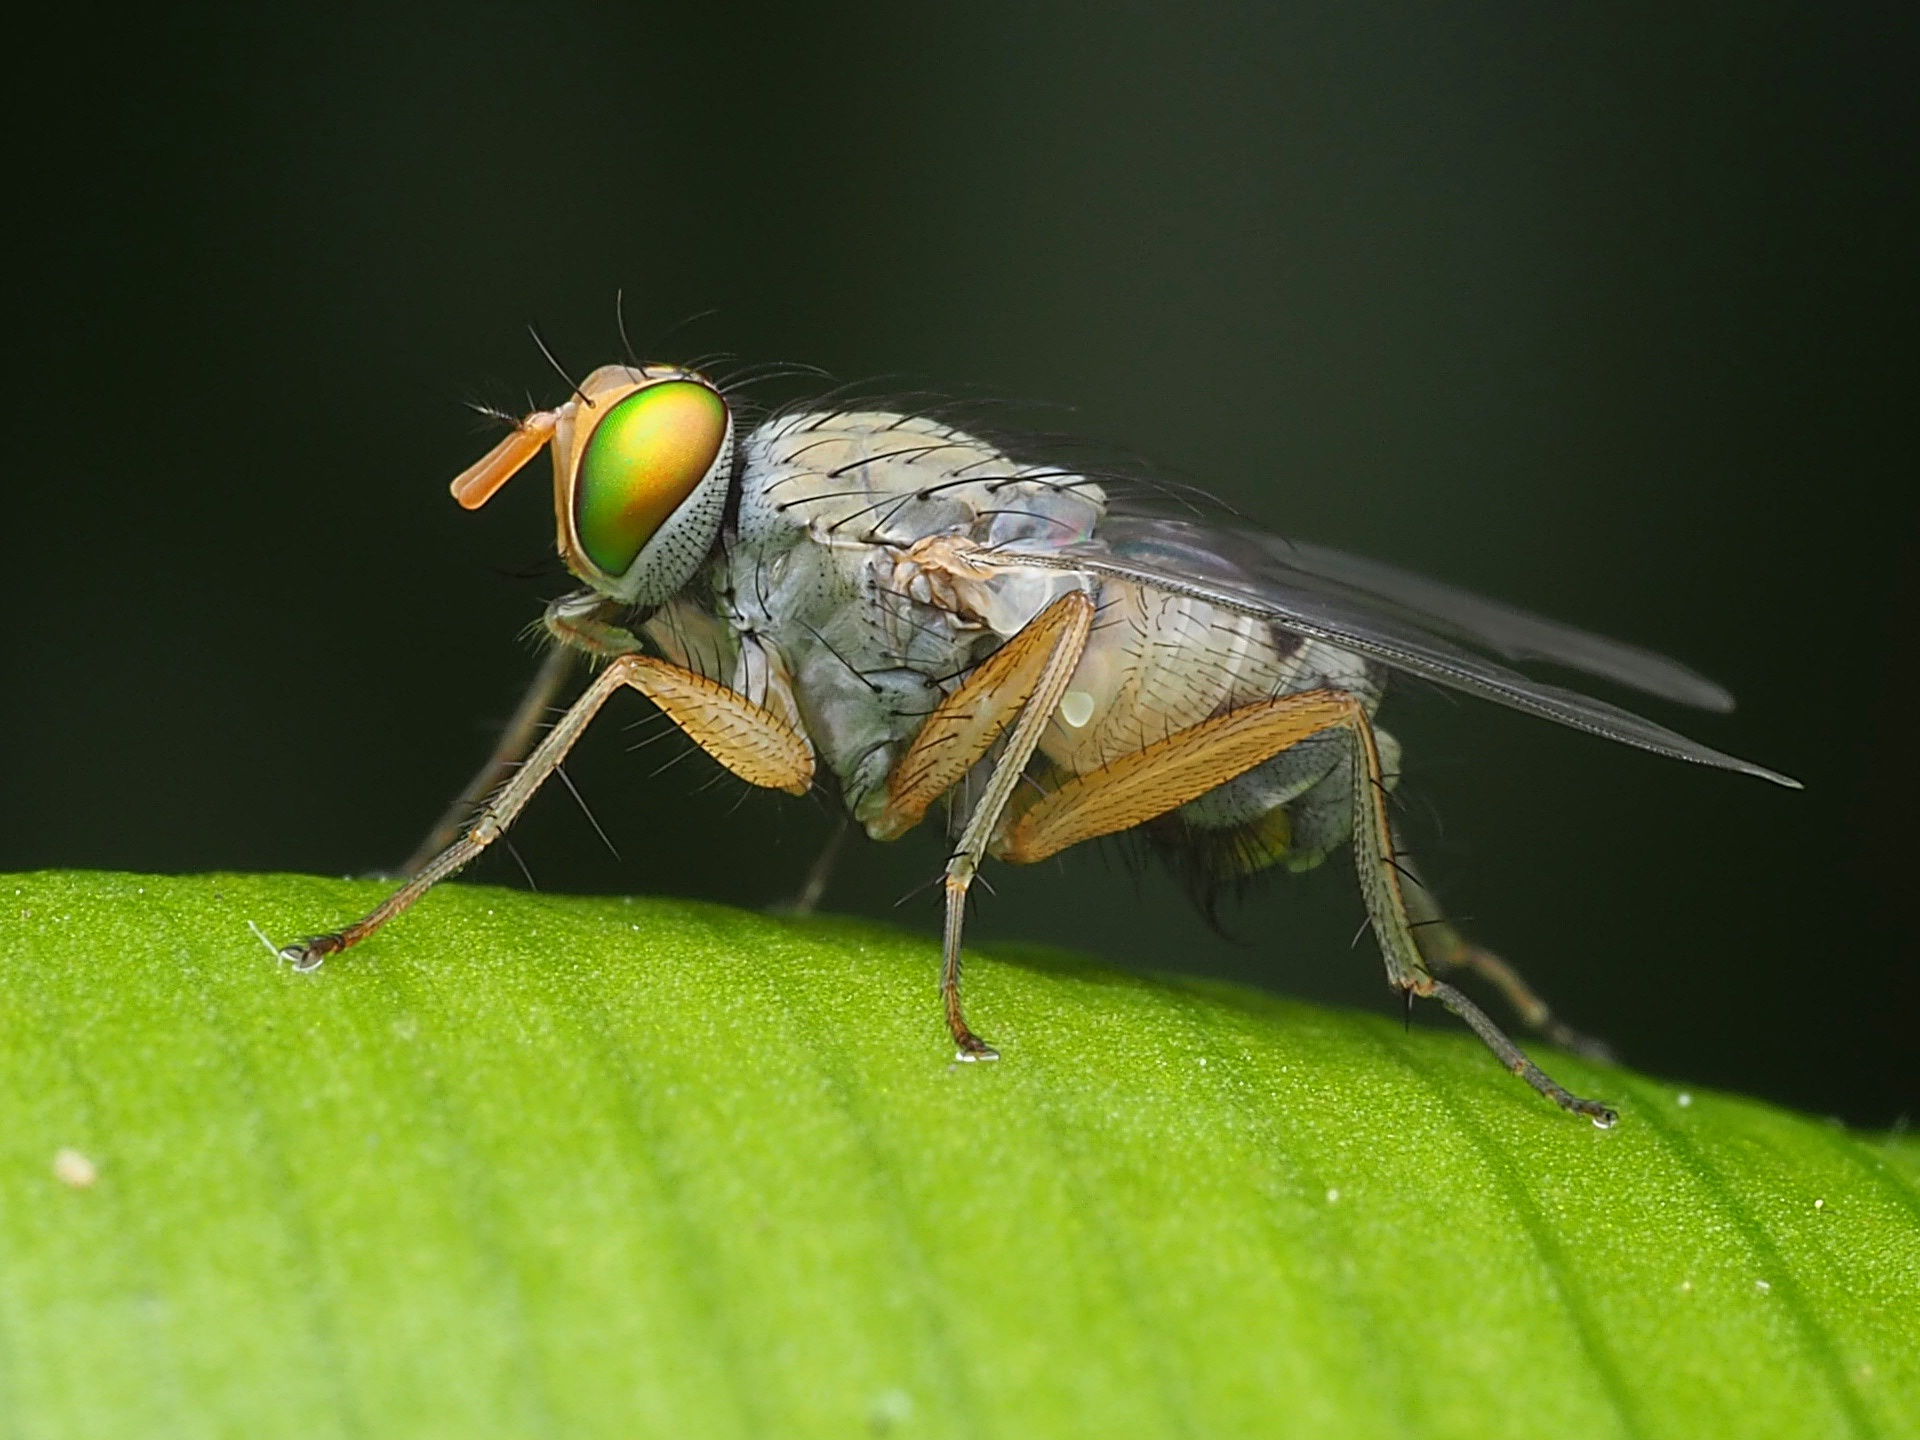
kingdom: Animalia
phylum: Arthropoda
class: Insecta
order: Diptera
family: Muscidae
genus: Pygophora
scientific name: Pygophora apicalis
